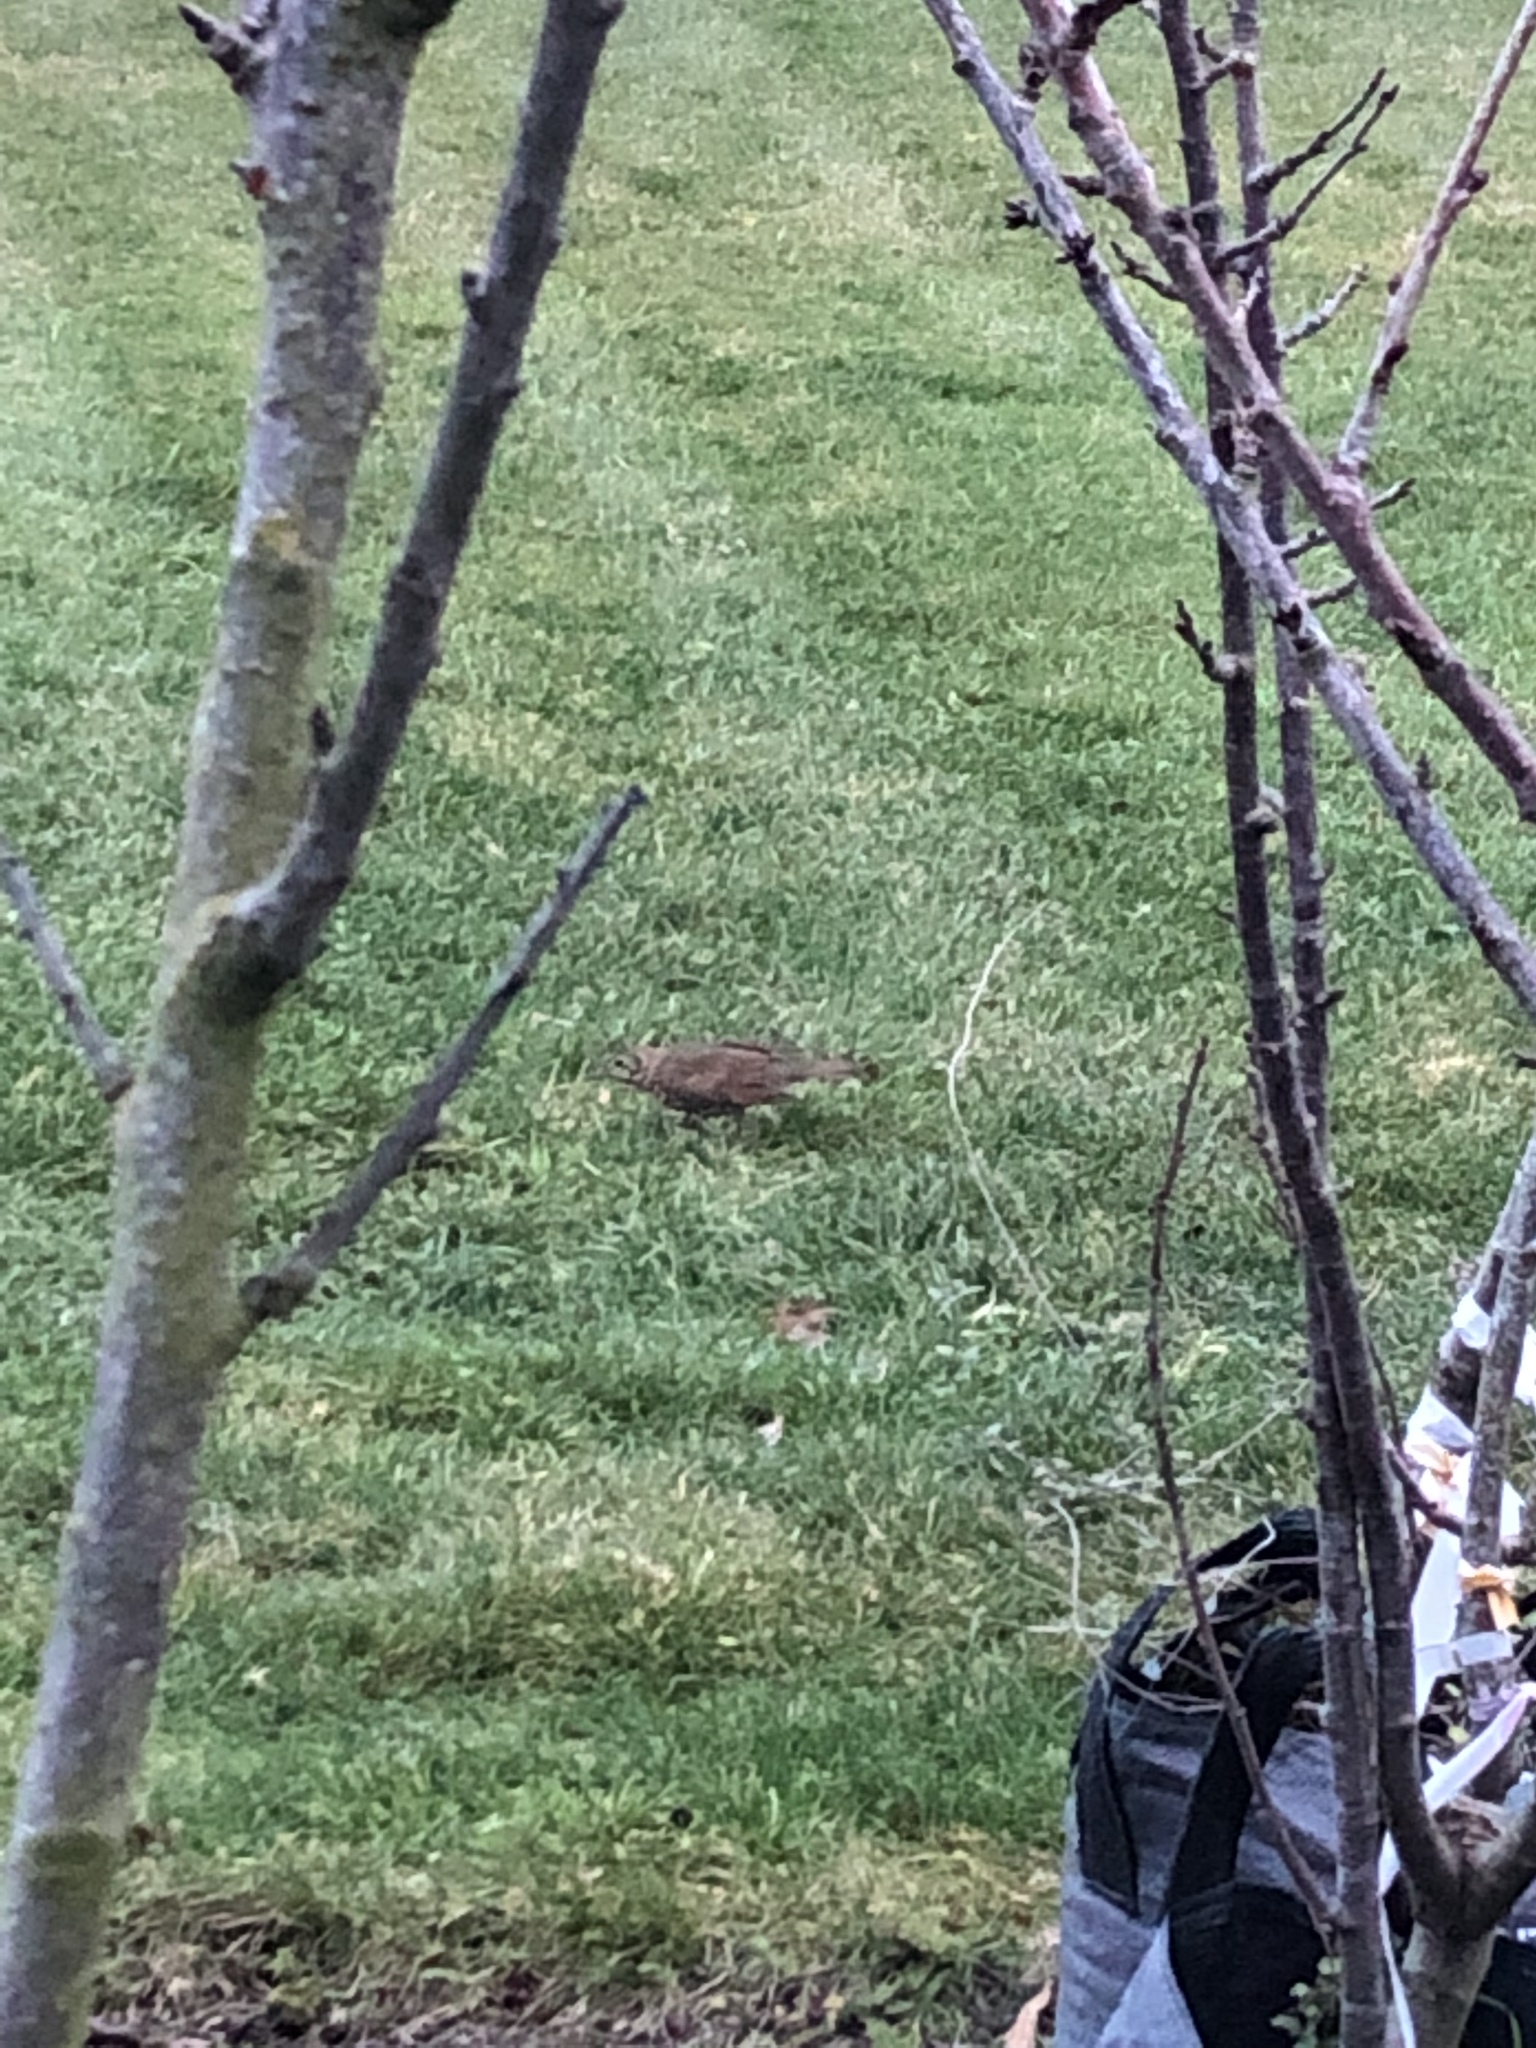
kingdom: Animalia
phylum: Chordata
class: Aves
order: Passeriformes
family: Turdidae
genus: Turdus
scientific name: Turdus philomelos
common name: Song thrush
